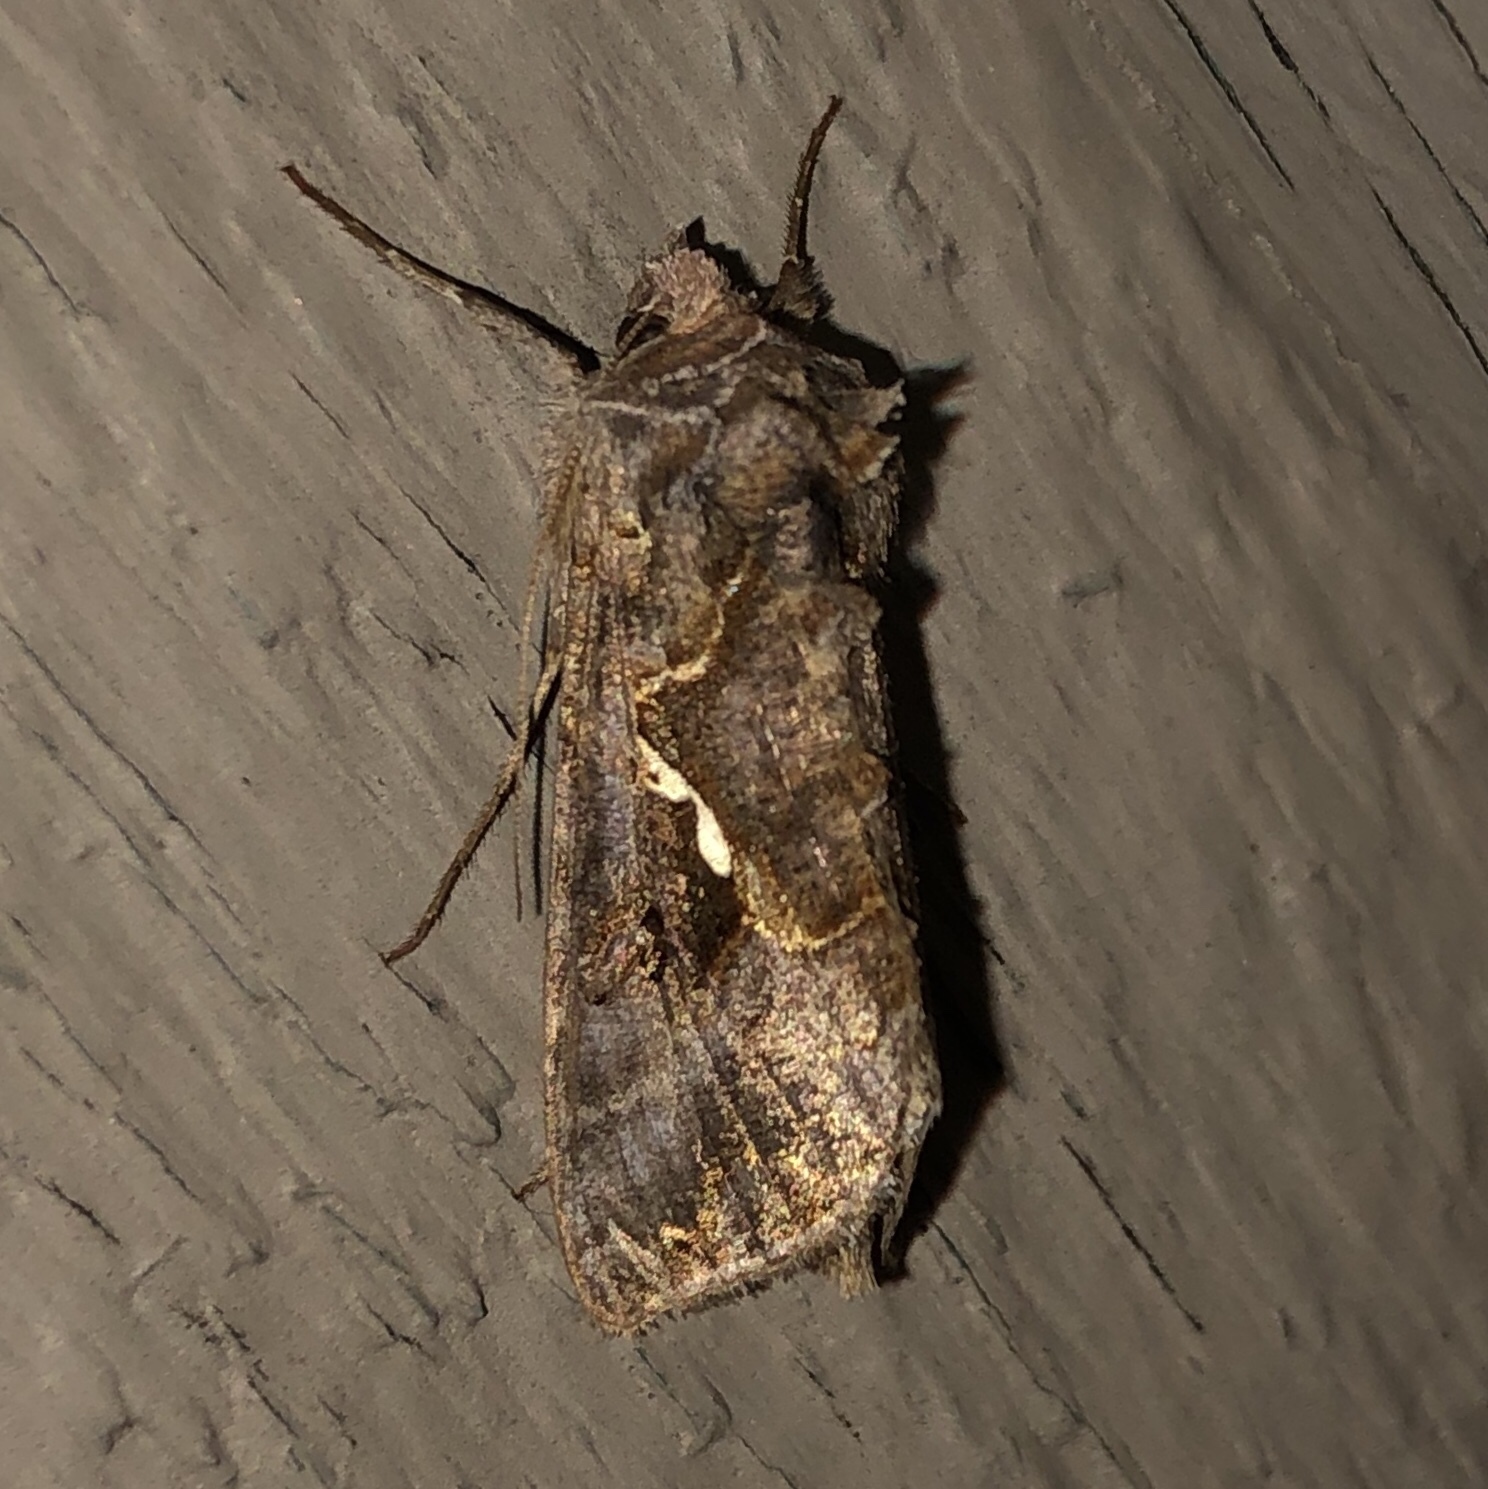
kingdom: Animalia
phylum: Arthropoda
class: Insecta
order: Lepidoptera
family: Noctuidae
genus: Autographa
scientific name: Autographa precationis
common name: Common looper moth
